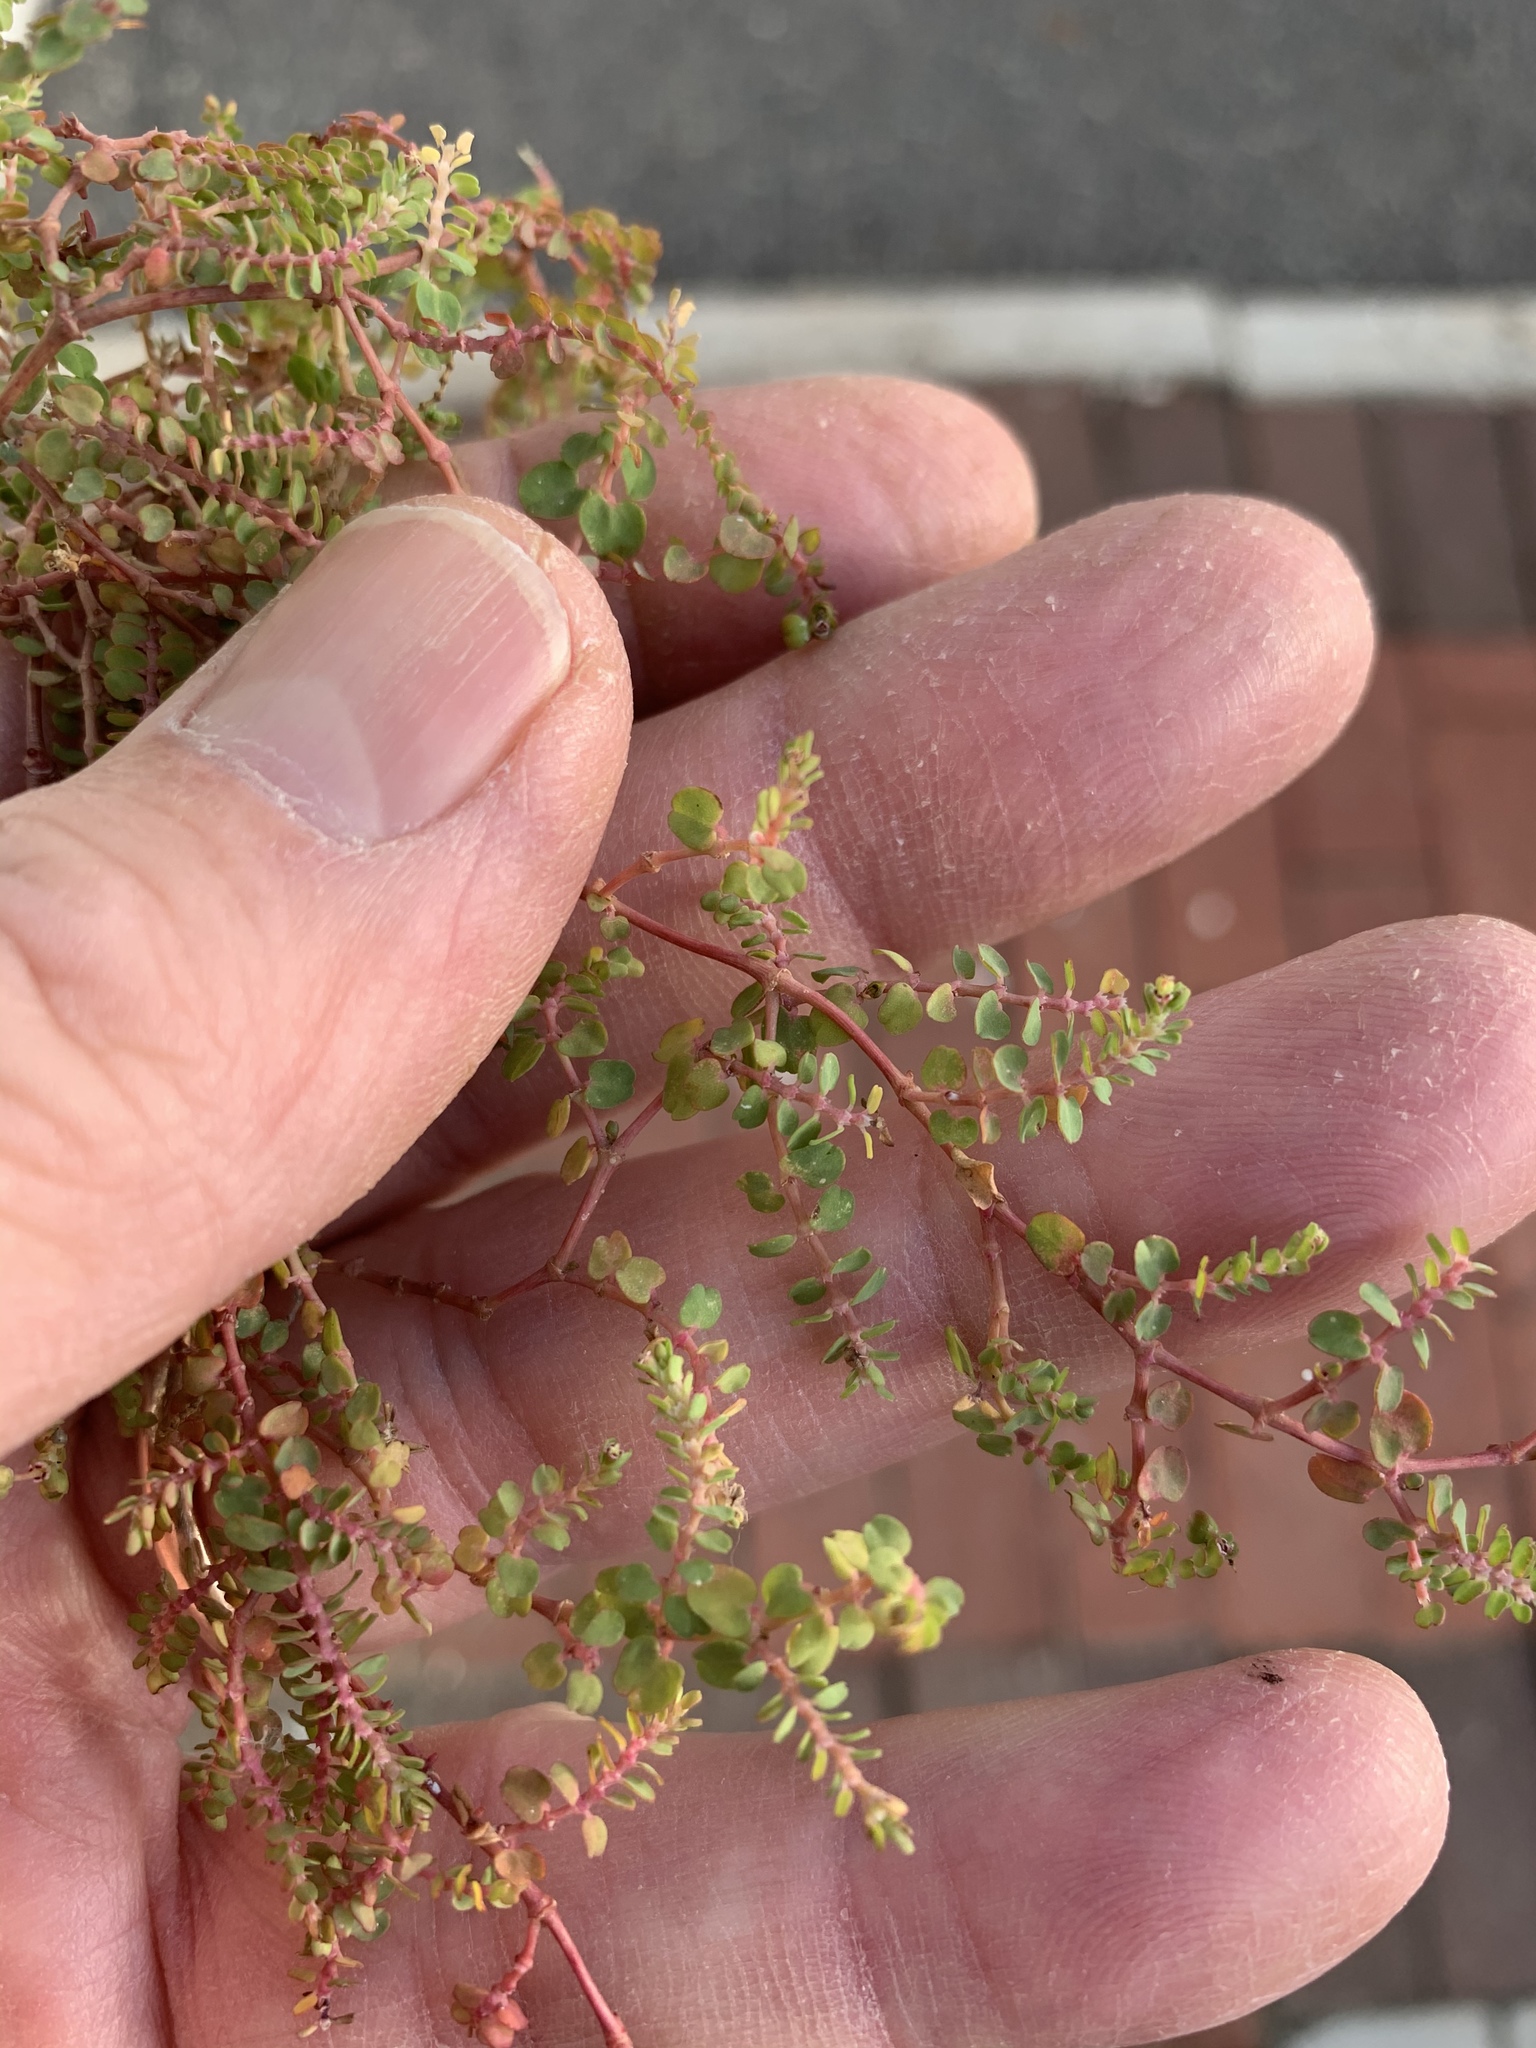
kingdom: Plantae
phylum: Tracheophyta
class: Magnoliopsida
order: Malpighiales
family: Euphorbiaceae
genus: Euphorbia
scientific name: Euphorbia serpens
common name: Matted sandmat
